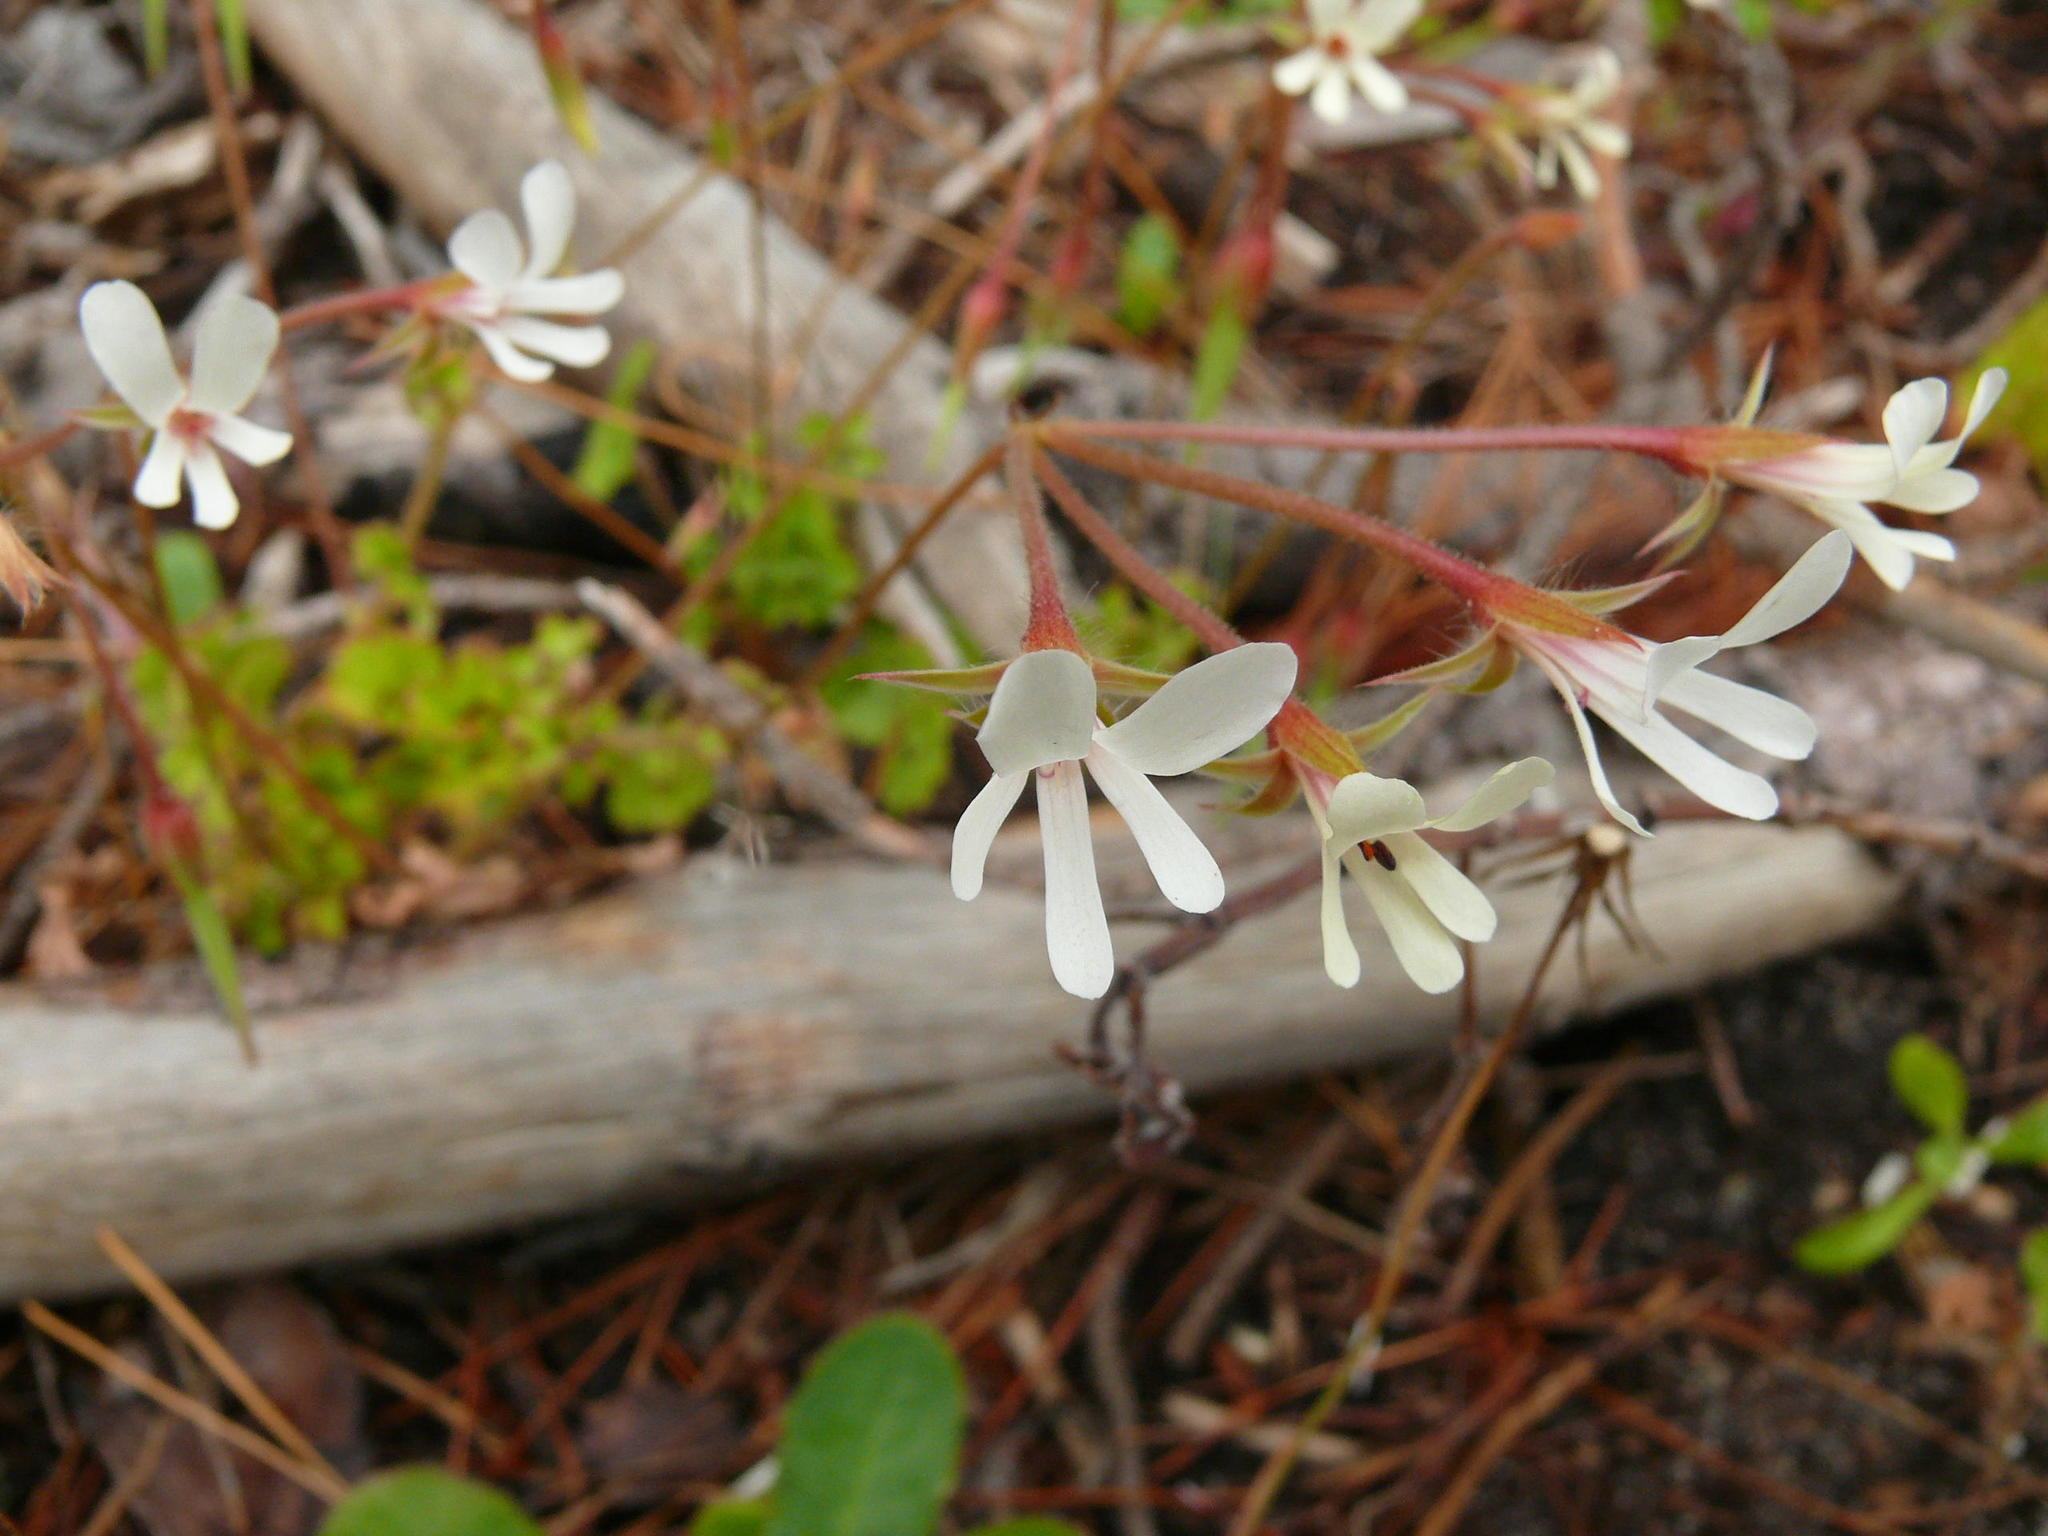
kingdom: Plantae
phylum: Tracheophyta
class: Magnoliopsida
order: Geraniales
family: Geraniaceae
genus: Pelargonium
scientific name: Pelargonium elongatum
